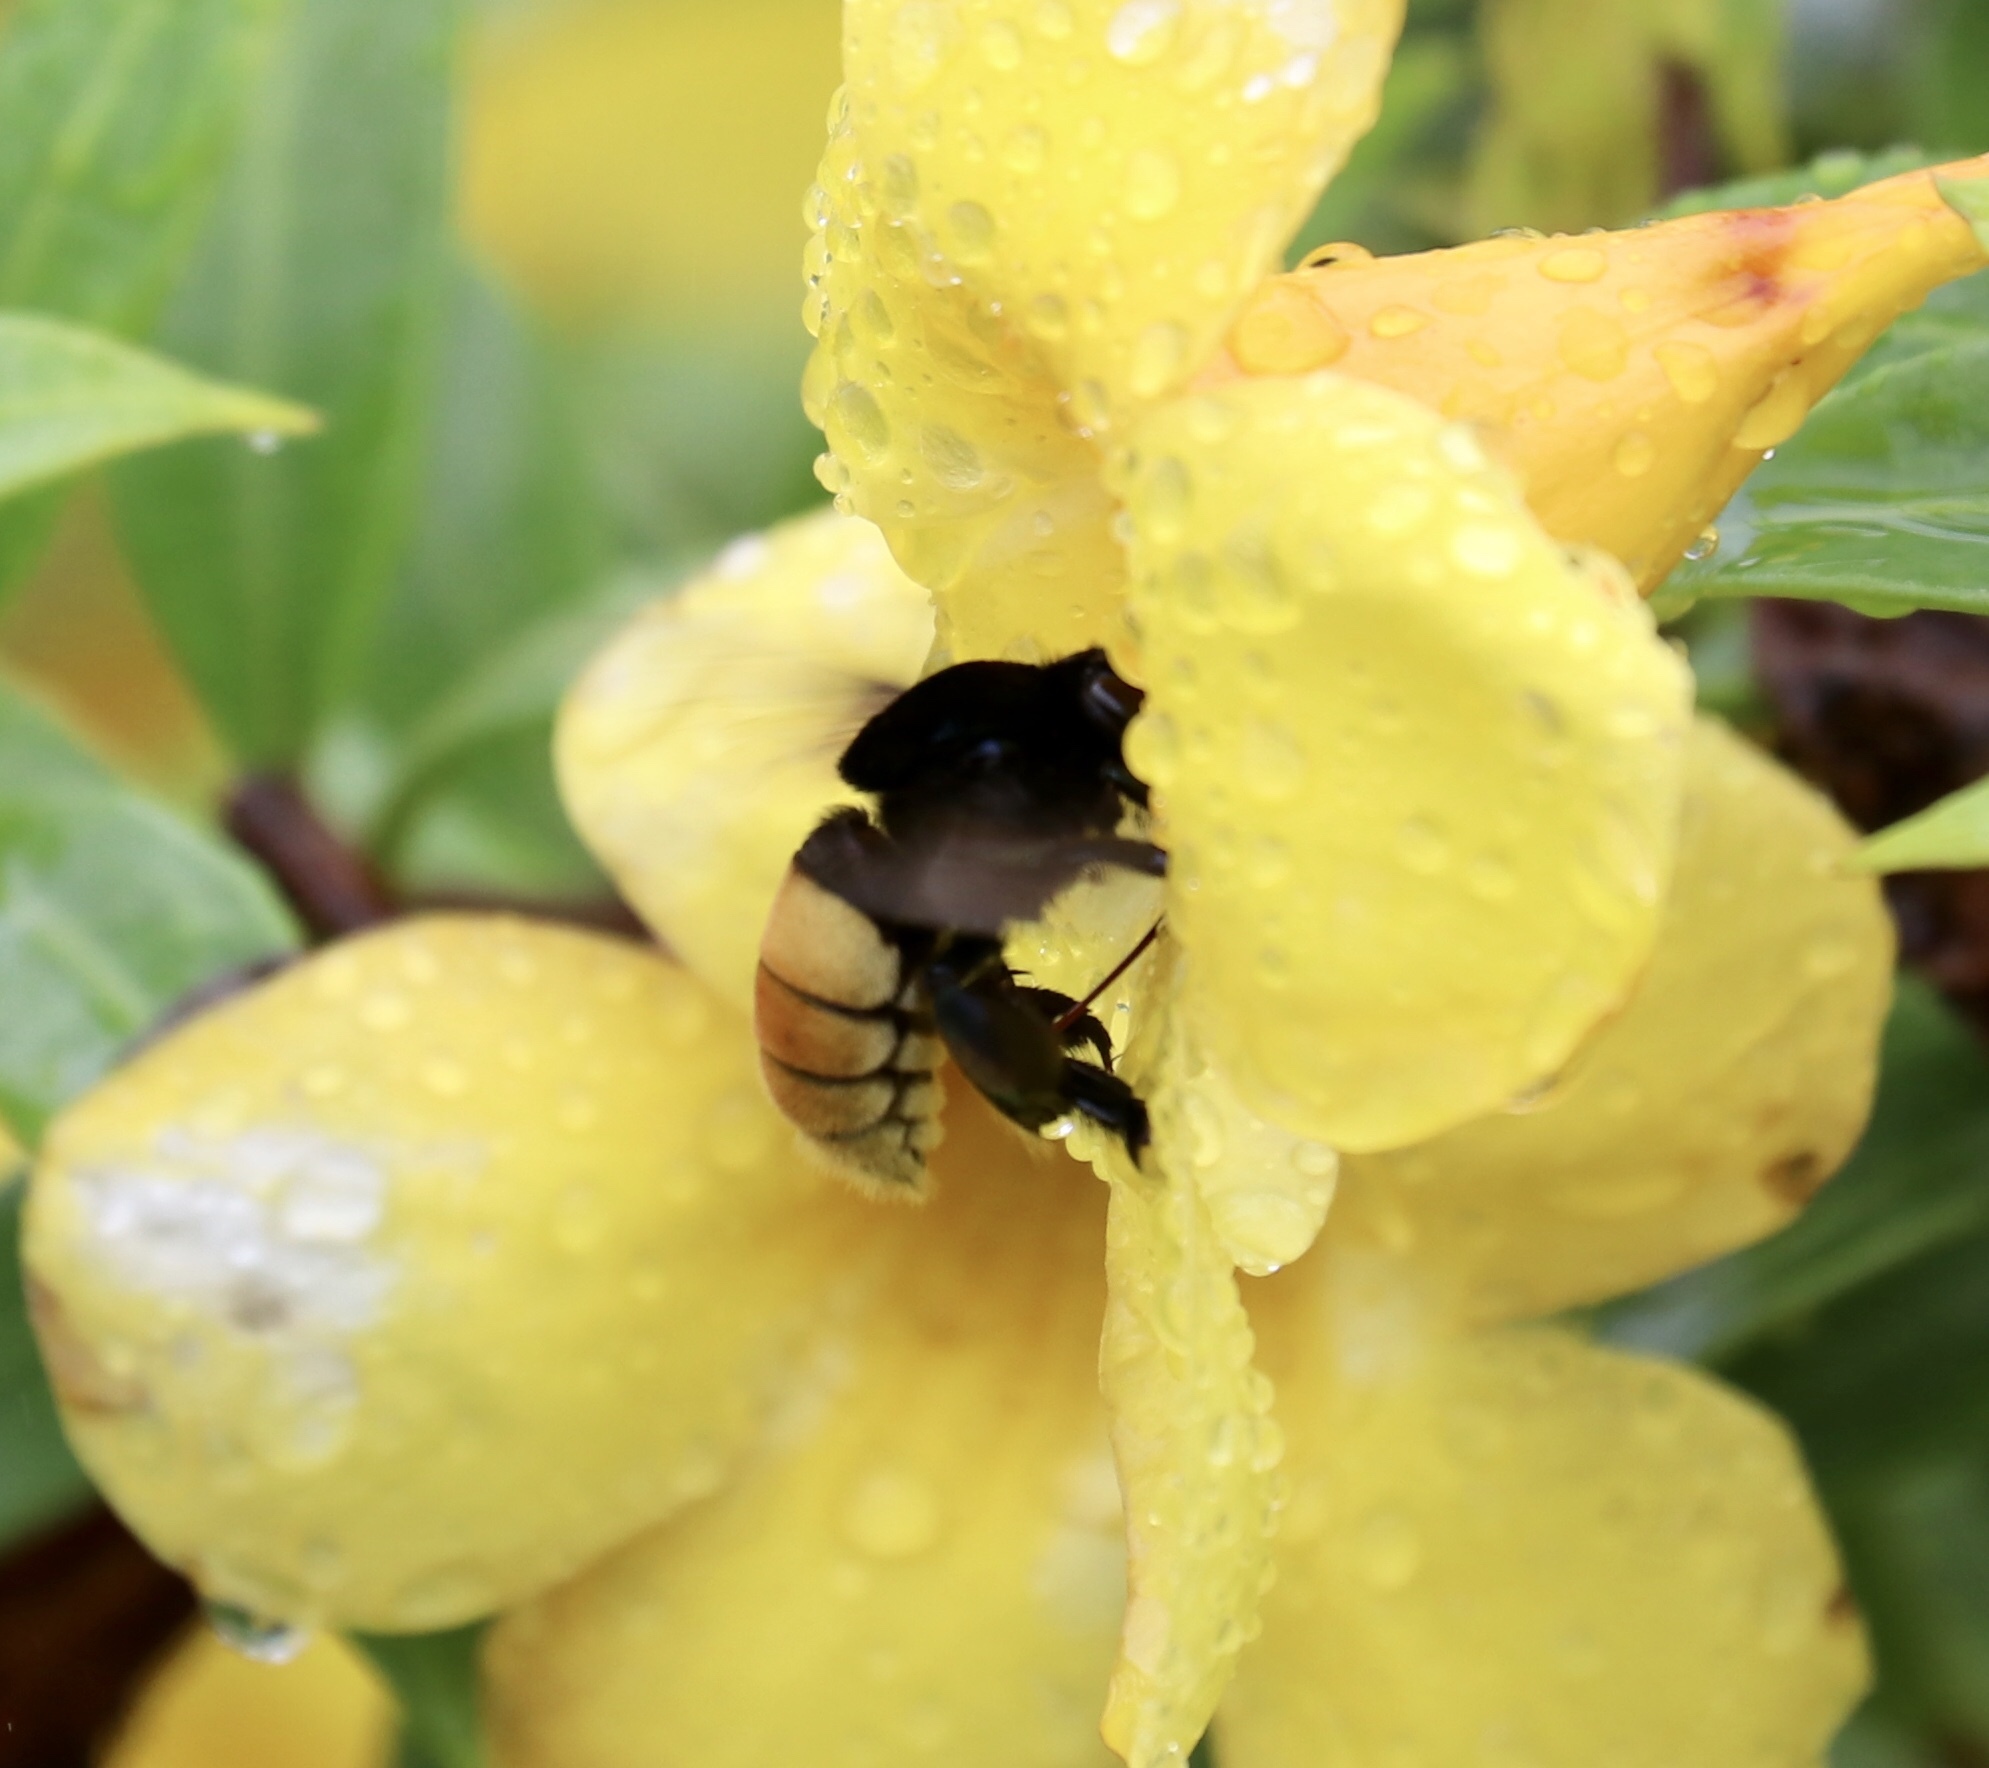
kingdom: Animalia
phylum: Arthropoda
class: Insecta
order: Hymenoptera
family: Apidae
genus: Eulaema
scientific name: Eulaema polychroma
